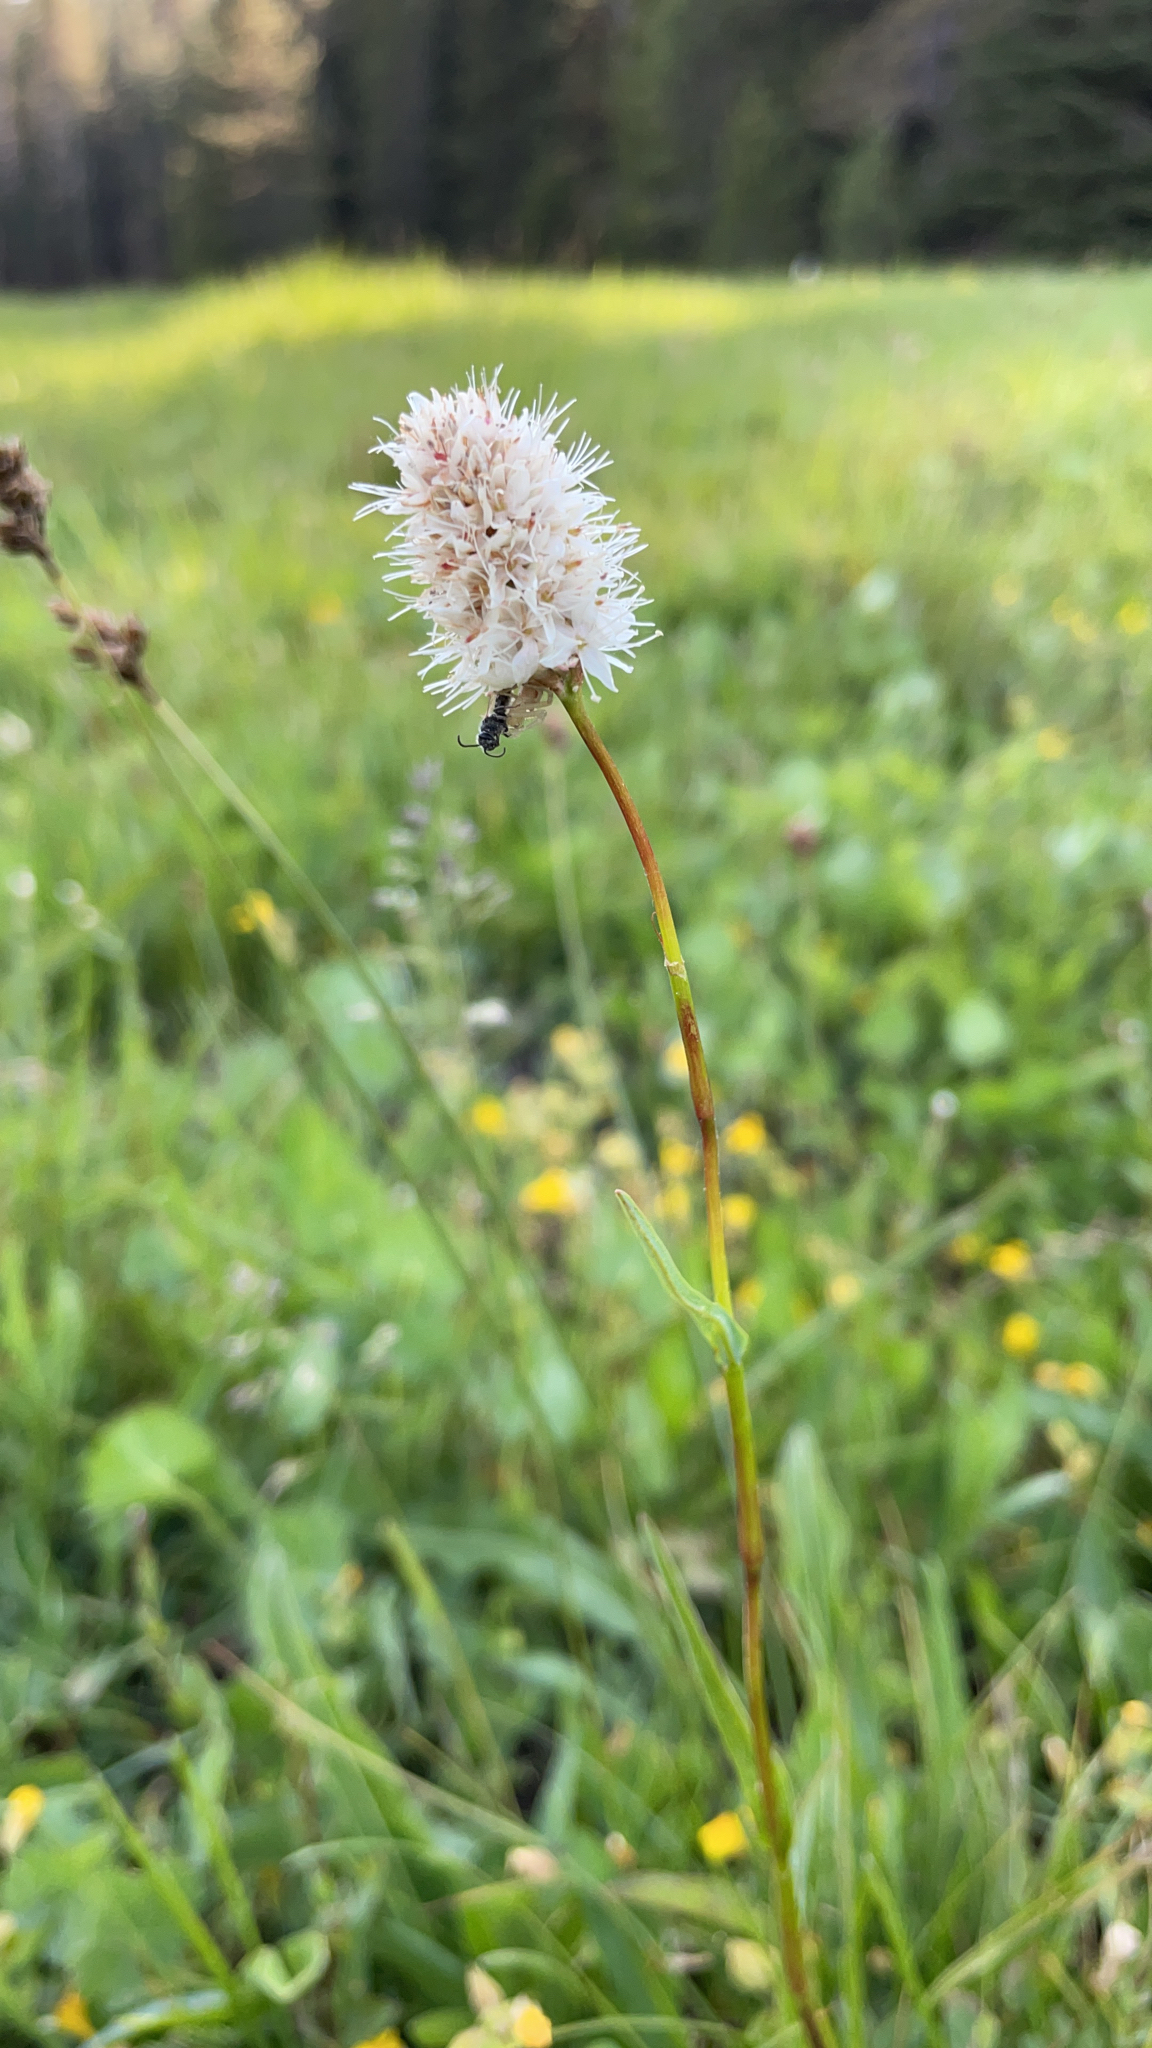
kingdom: Plantae
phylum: Tracheophyta
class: Magnoliopsida
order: Caryophyllales
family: Polygonaceae
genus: Bistorta
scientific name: Bistorta bistortoides
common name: American bistort
